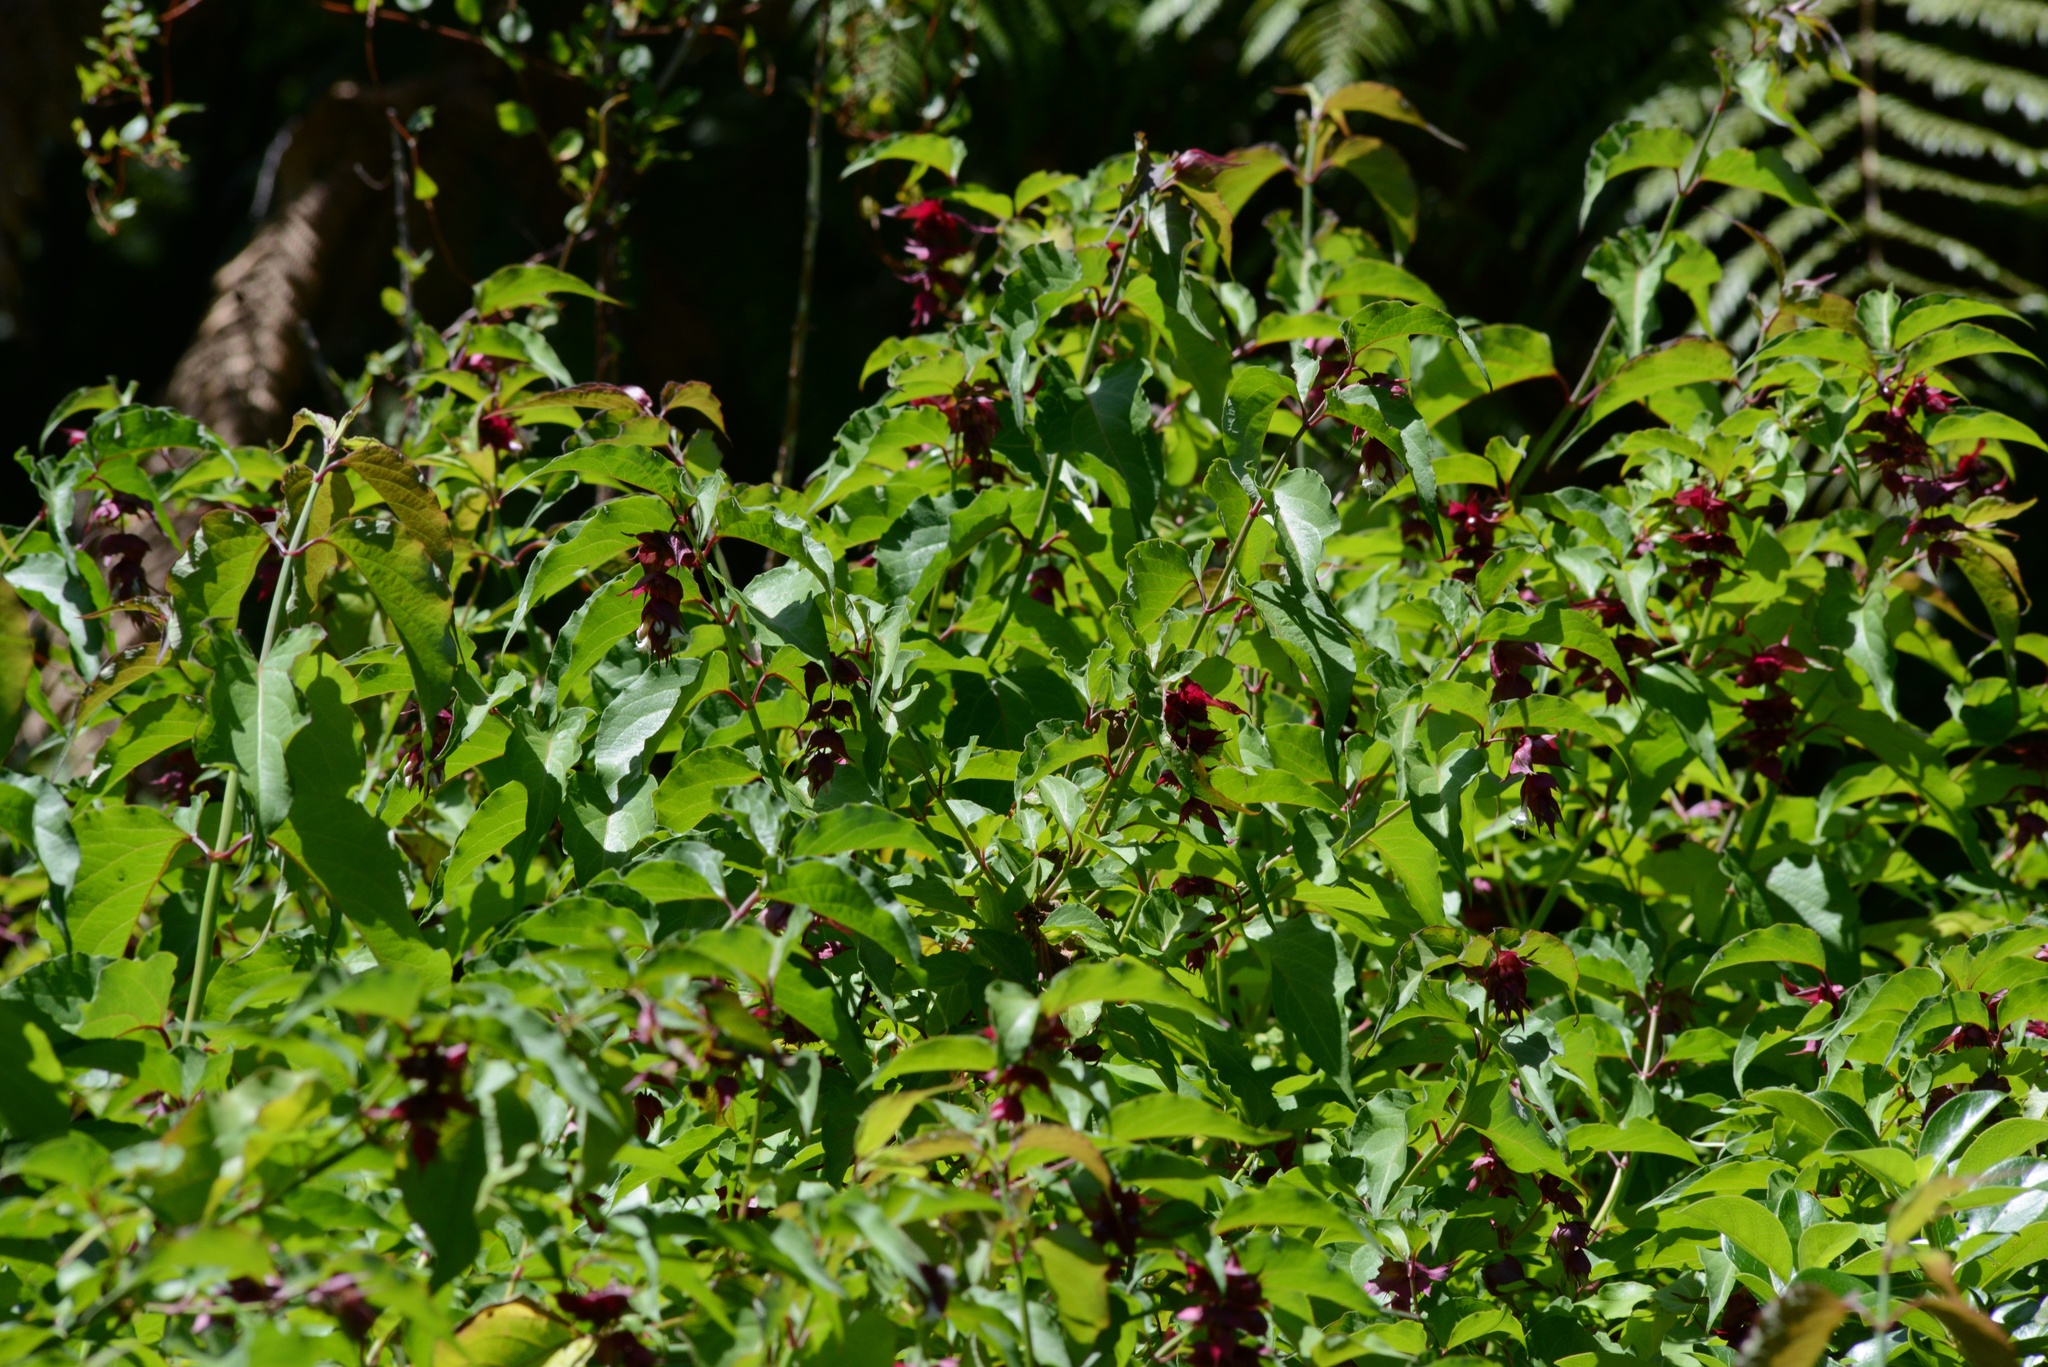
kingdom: Plantae
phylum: Tracheophyta
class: Magnoliopsida
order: Dipsacales
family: Caprifoliaceae
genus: Leycesteria
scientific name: Leycesteria formosa
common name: Himalayan honeysuckle
